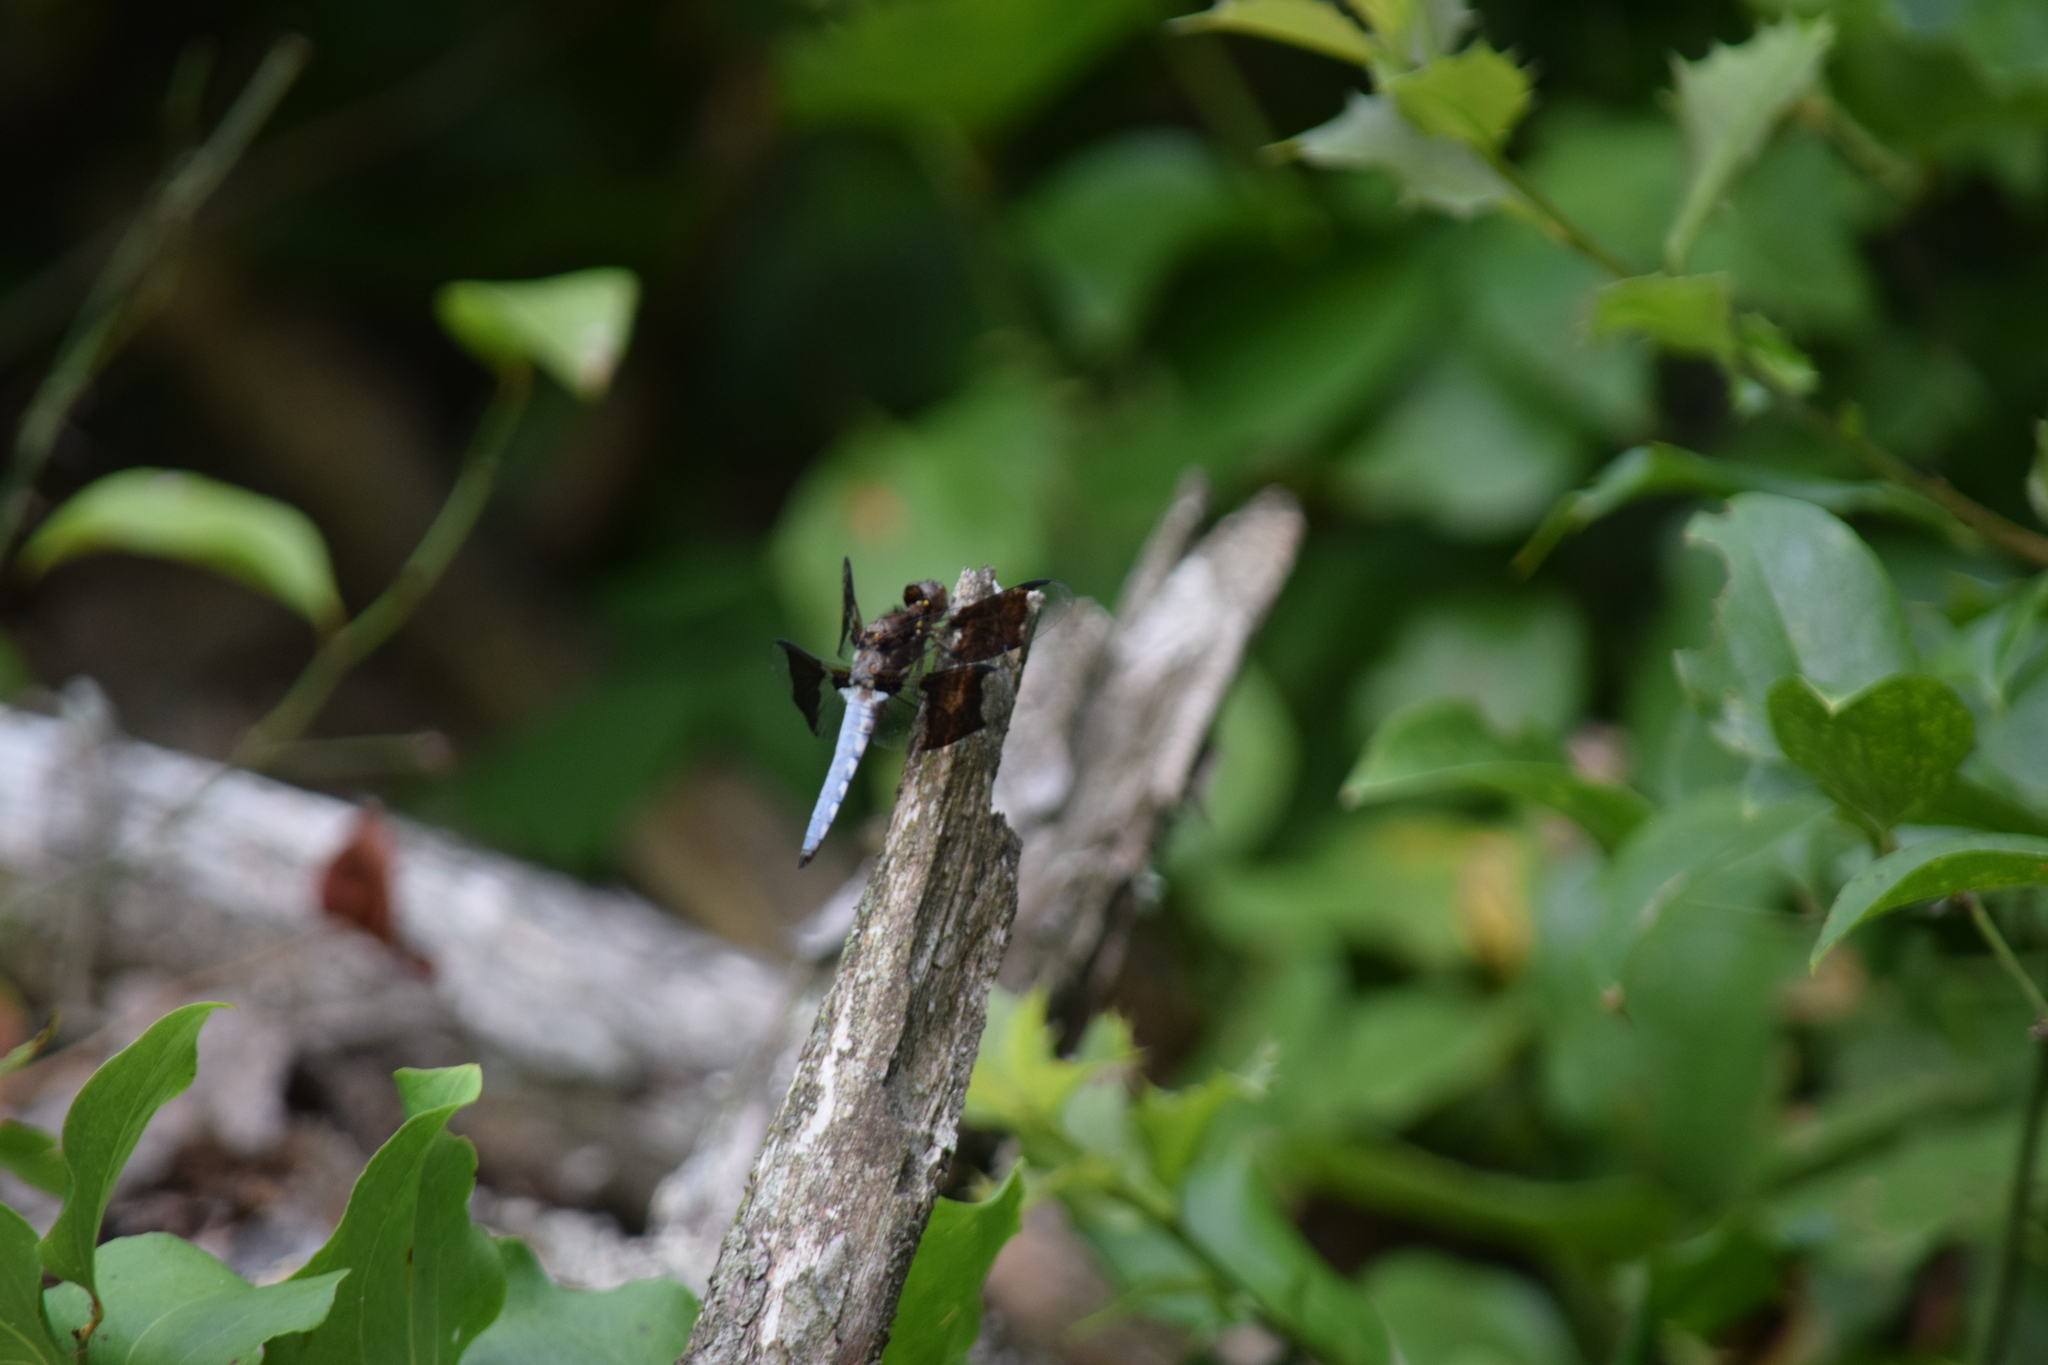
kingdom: Animalia
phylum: Arthropoda
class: Insecta
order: Odonata
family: Libellulidae
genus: Plathemis
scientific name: Plathemis lydia
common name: Common whitetail
